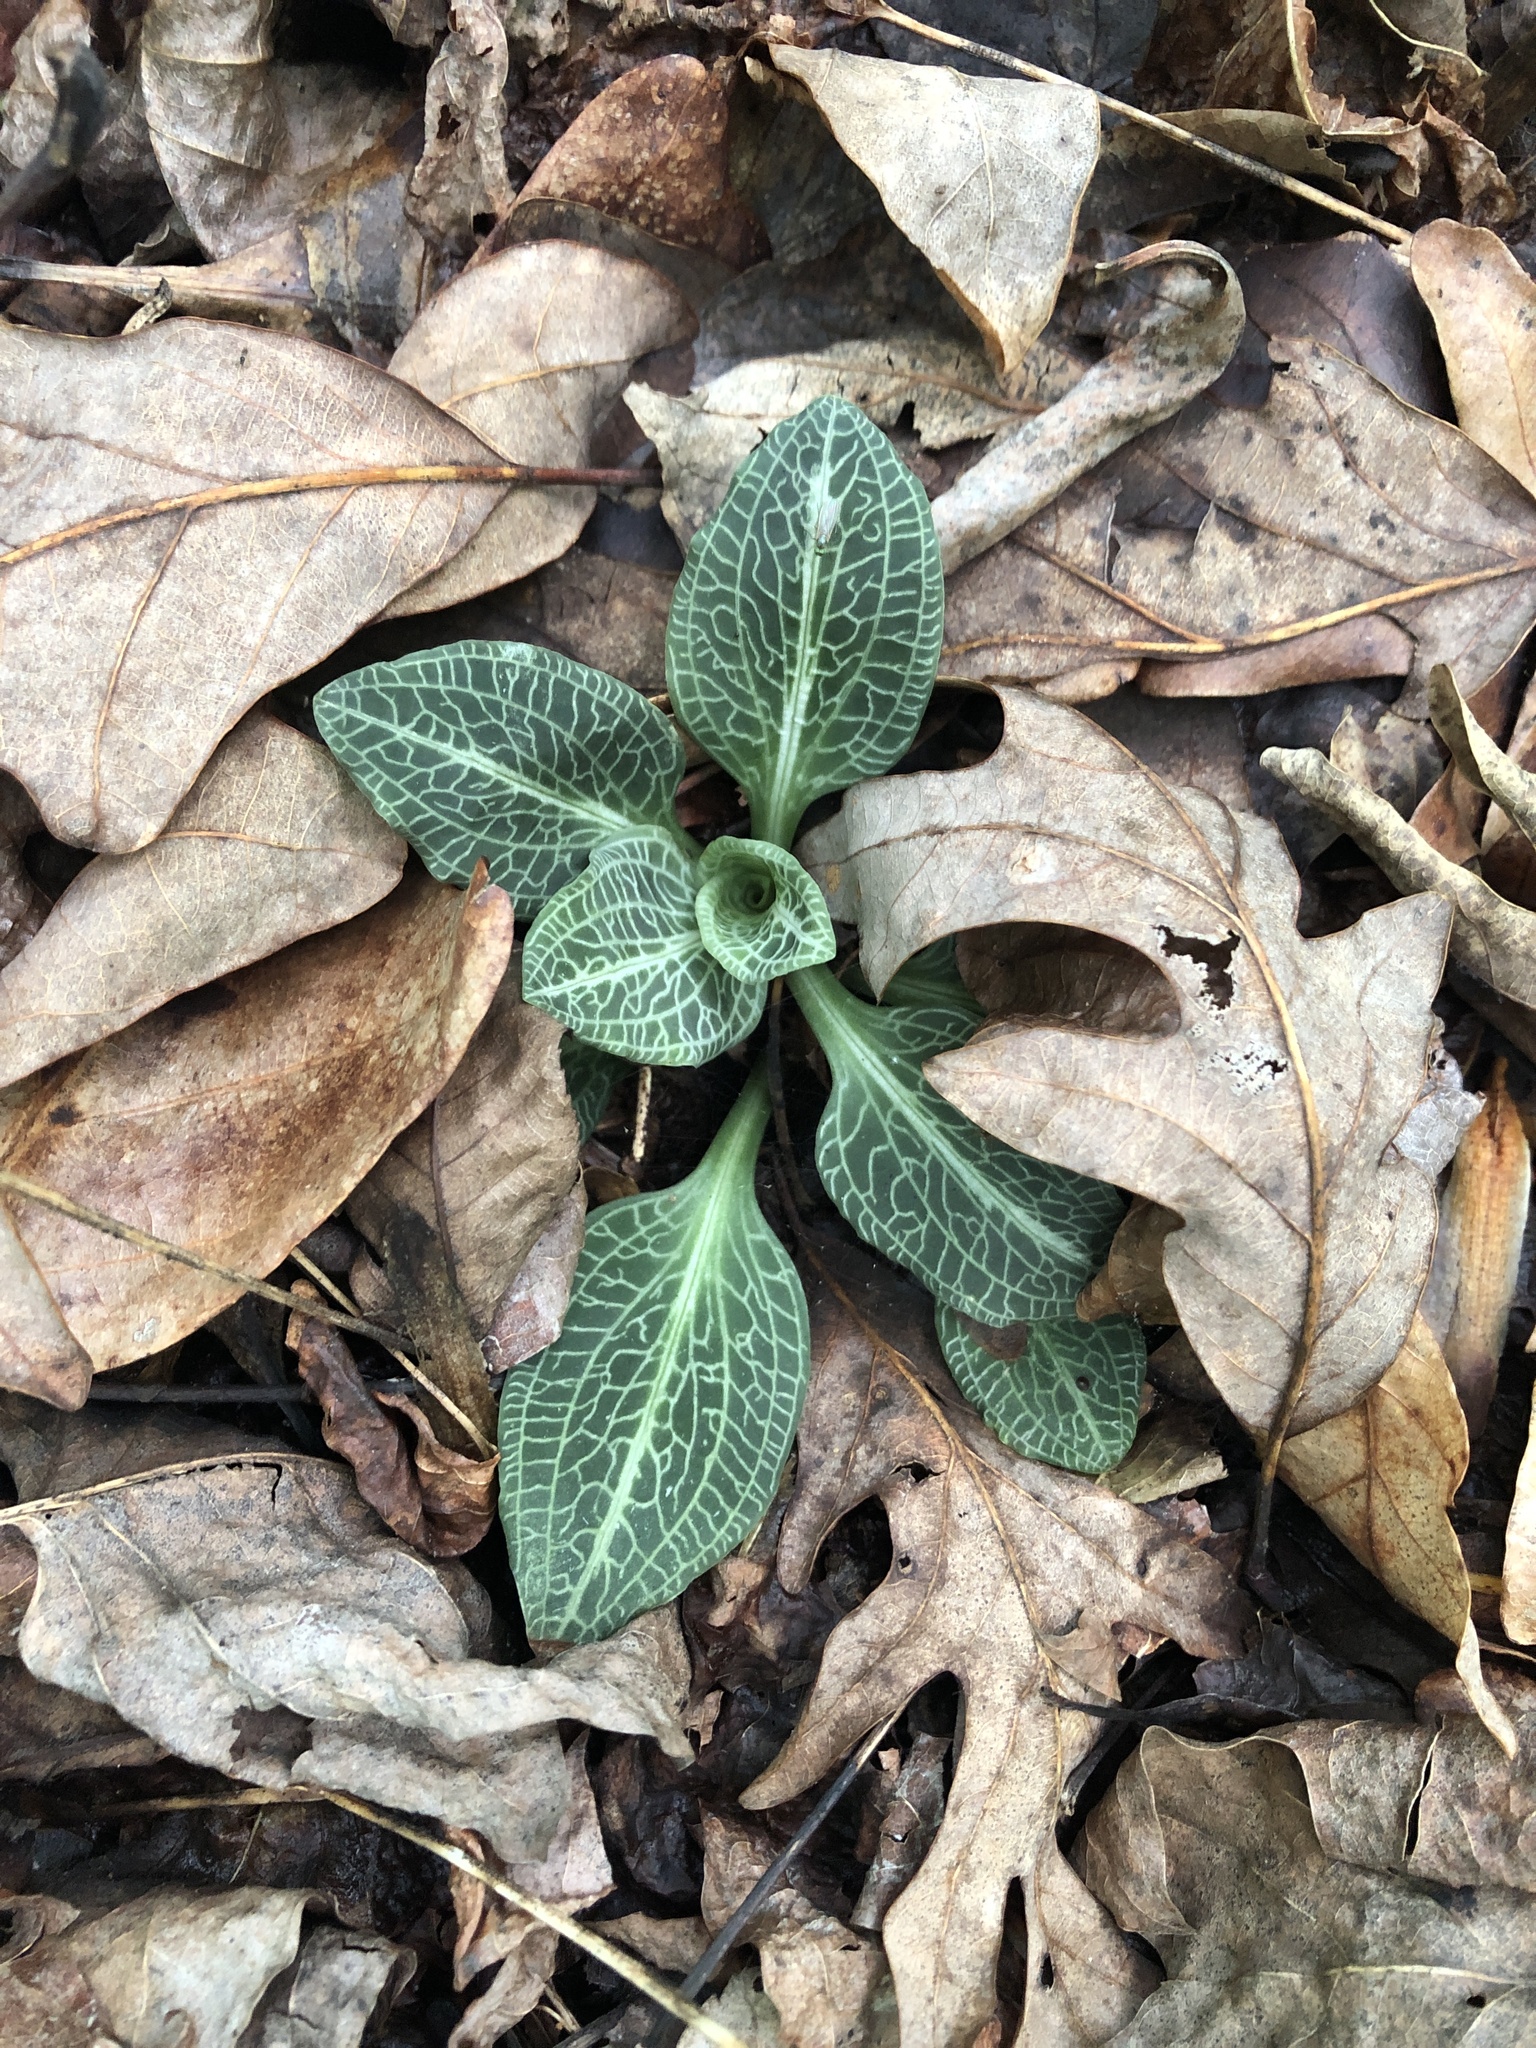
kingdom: Plantae
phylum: Tracheophyta
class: Liliopsida
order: Asparagales
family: Orchidaceae
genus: Goodyera
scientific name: Goodyera pubescens
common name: Downy rattlesnake-plantain
